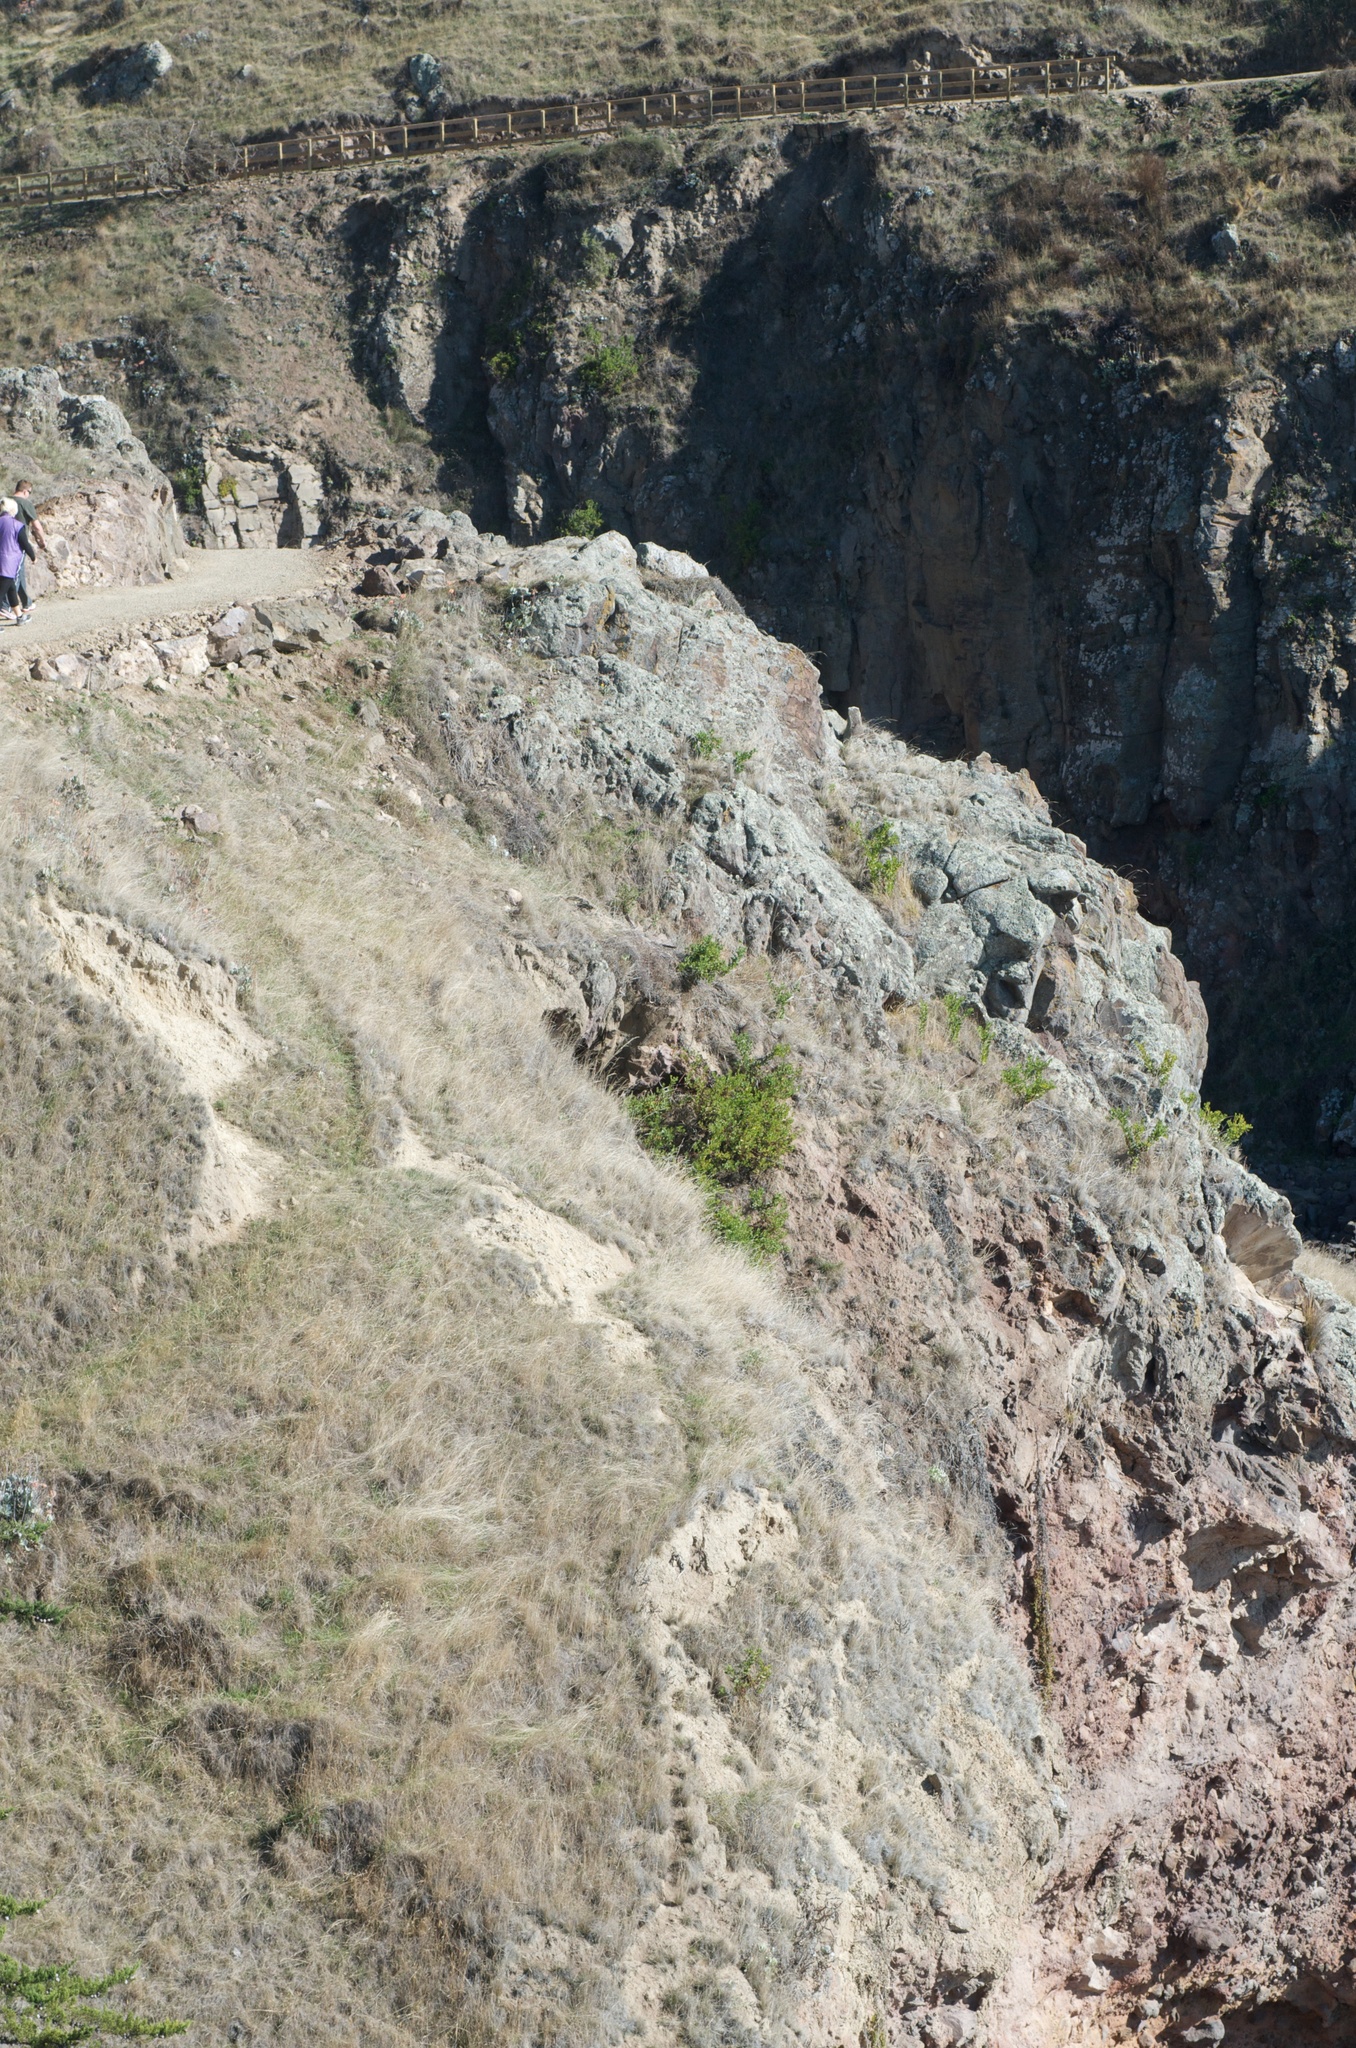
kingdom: Plantae
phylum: Tracheophyta
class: Magnoliopsida
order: Asterales
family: Asteraceae
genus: Osteospermum
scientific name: Osteospermum moniliferum
